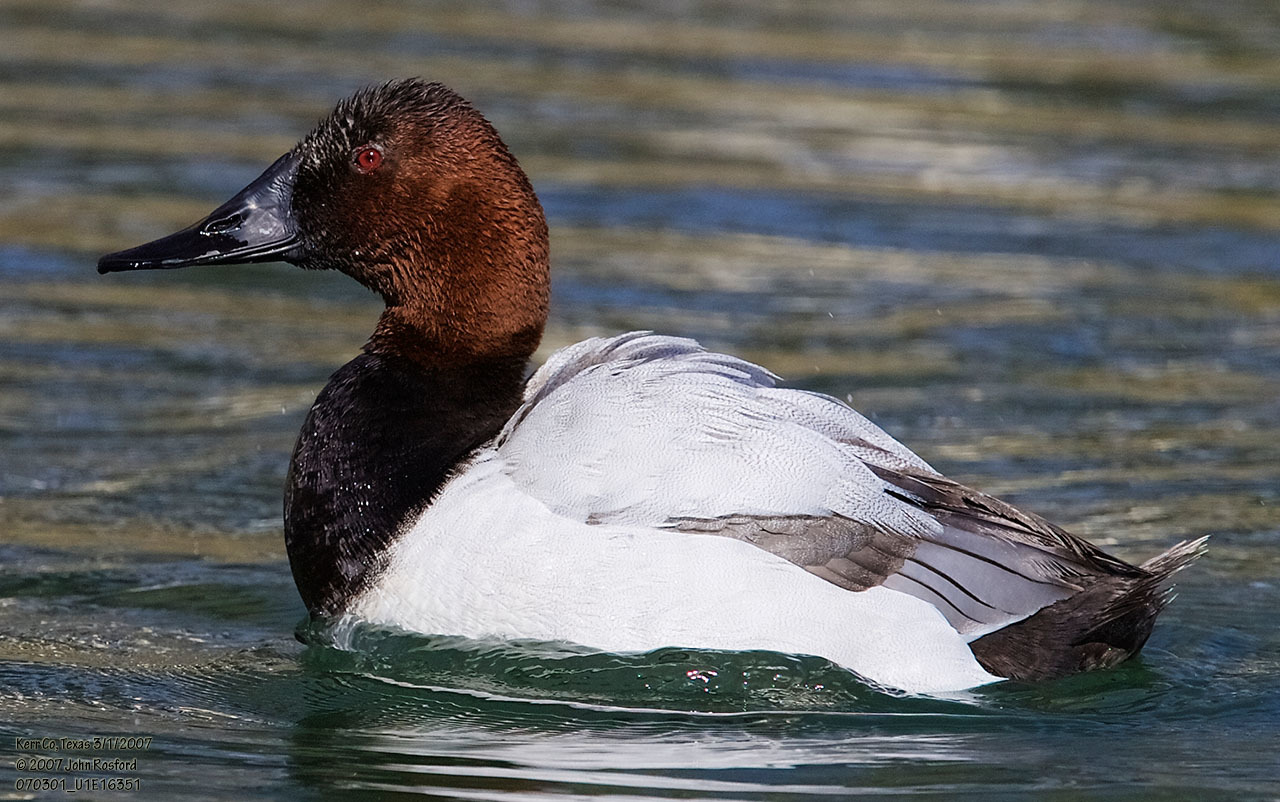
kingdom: Animalia
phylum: Chordata
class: Aves
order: Anseriformes
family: Anatidae
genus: Aythya
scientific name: Aythya valisineria
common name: Canvasback
